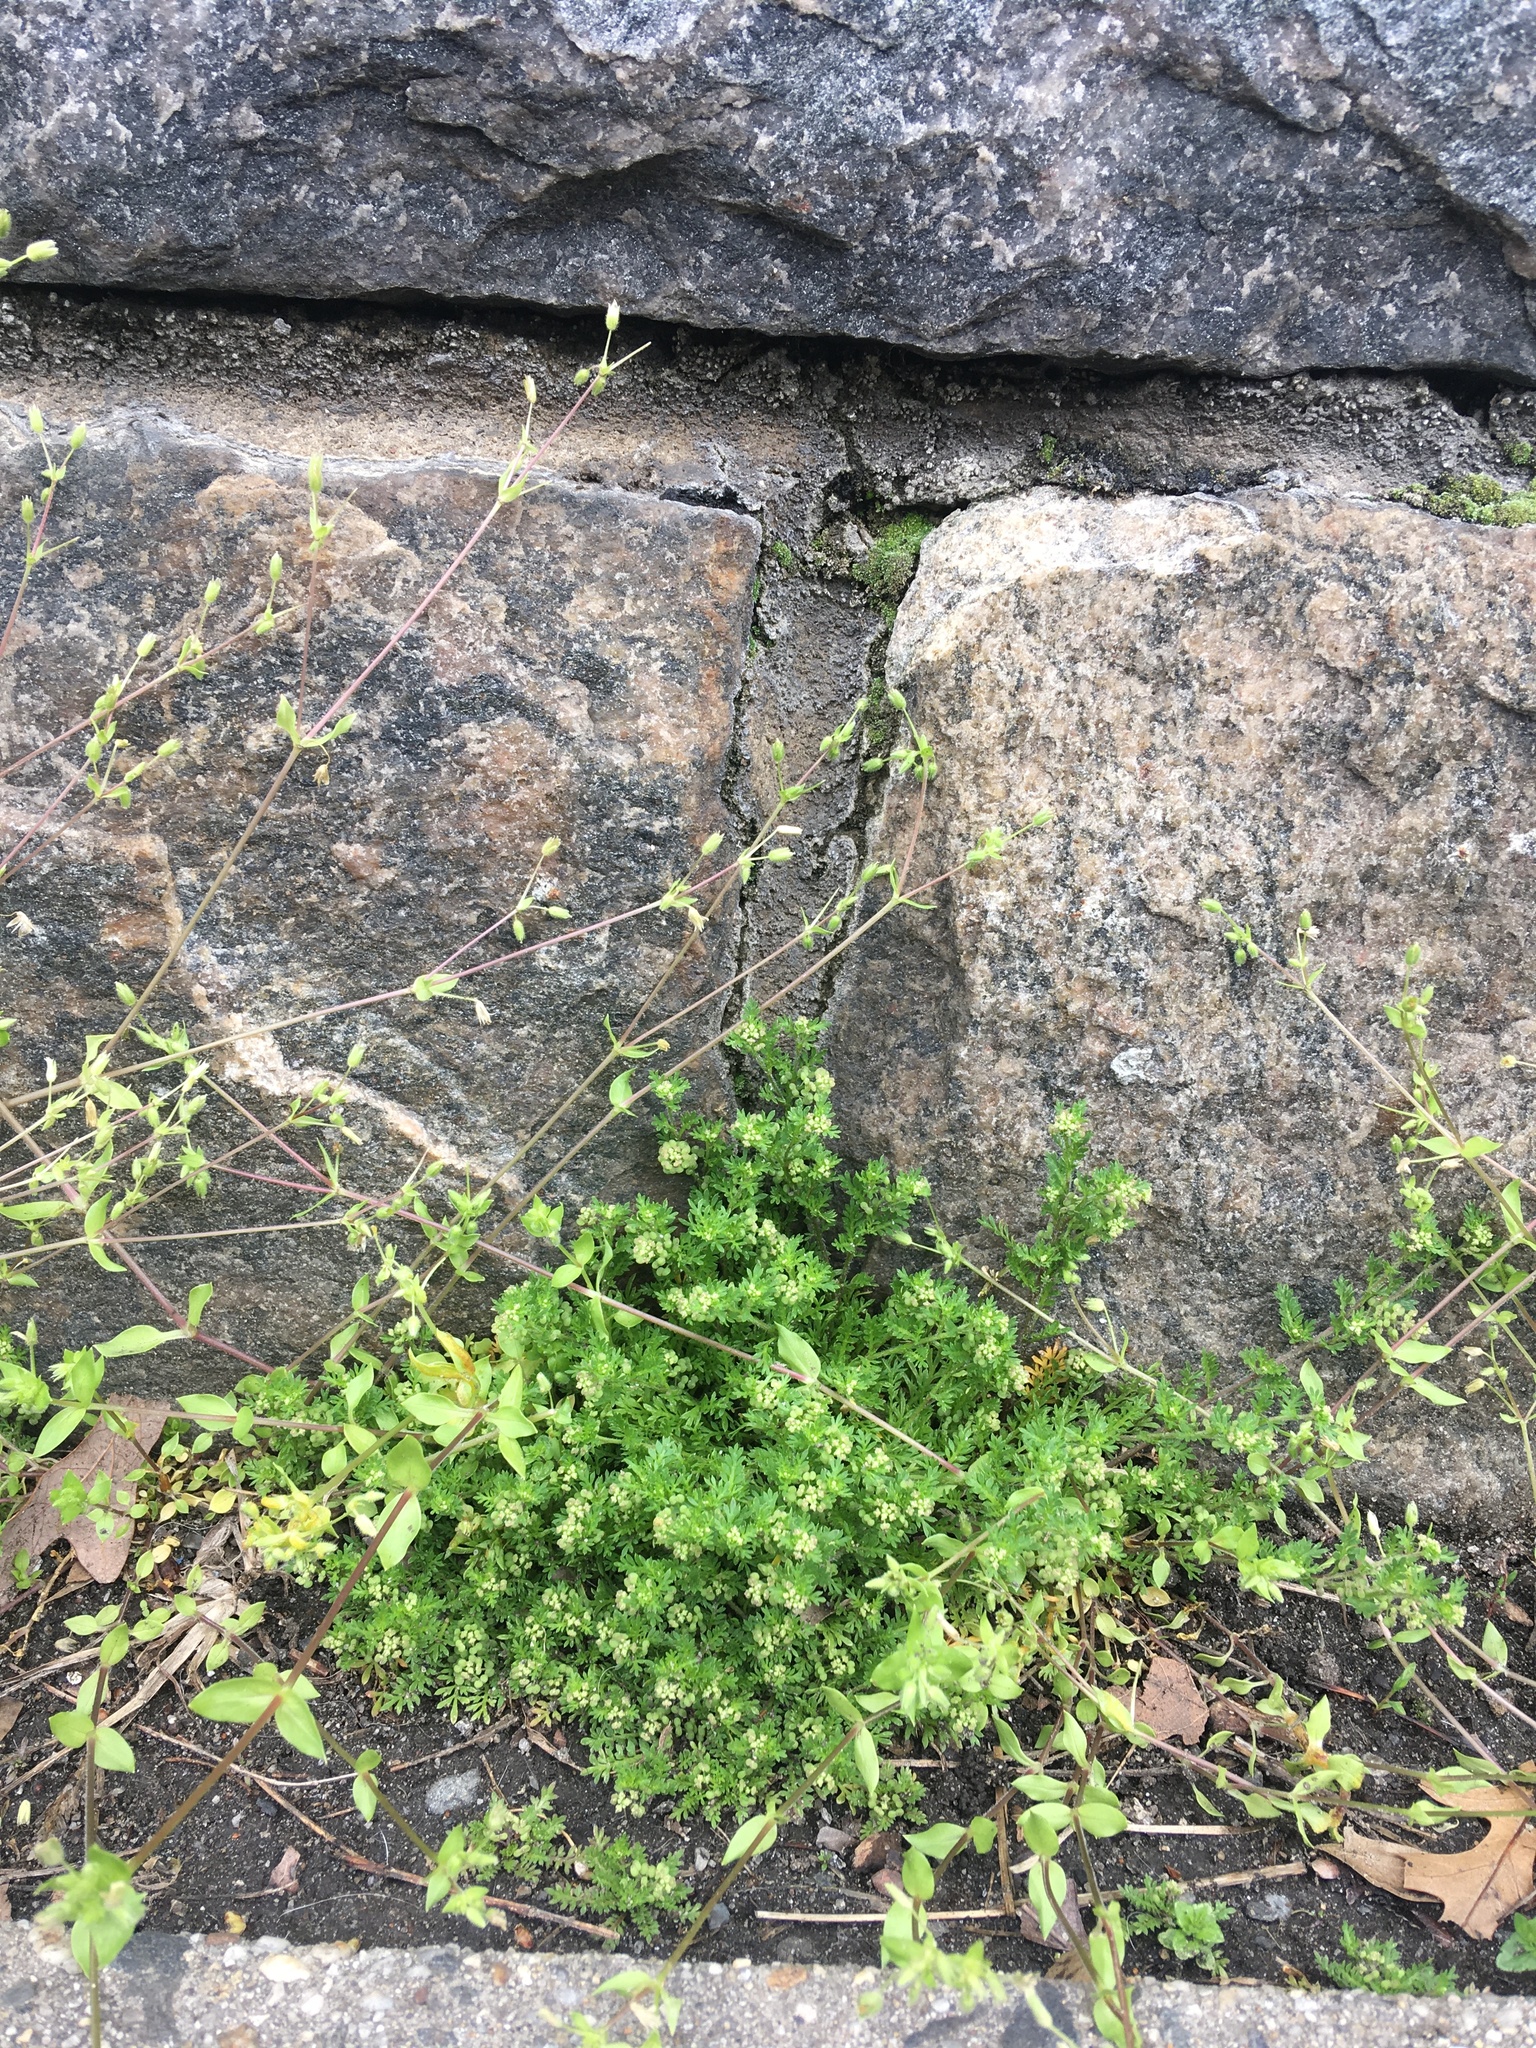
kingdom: Plantae
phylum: Tracheophyta
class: Magnoliopsida
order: Brassicales
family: Brassicaceae
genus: Lepidium
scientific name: Lepidium didymum
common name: Lesser swinecress
